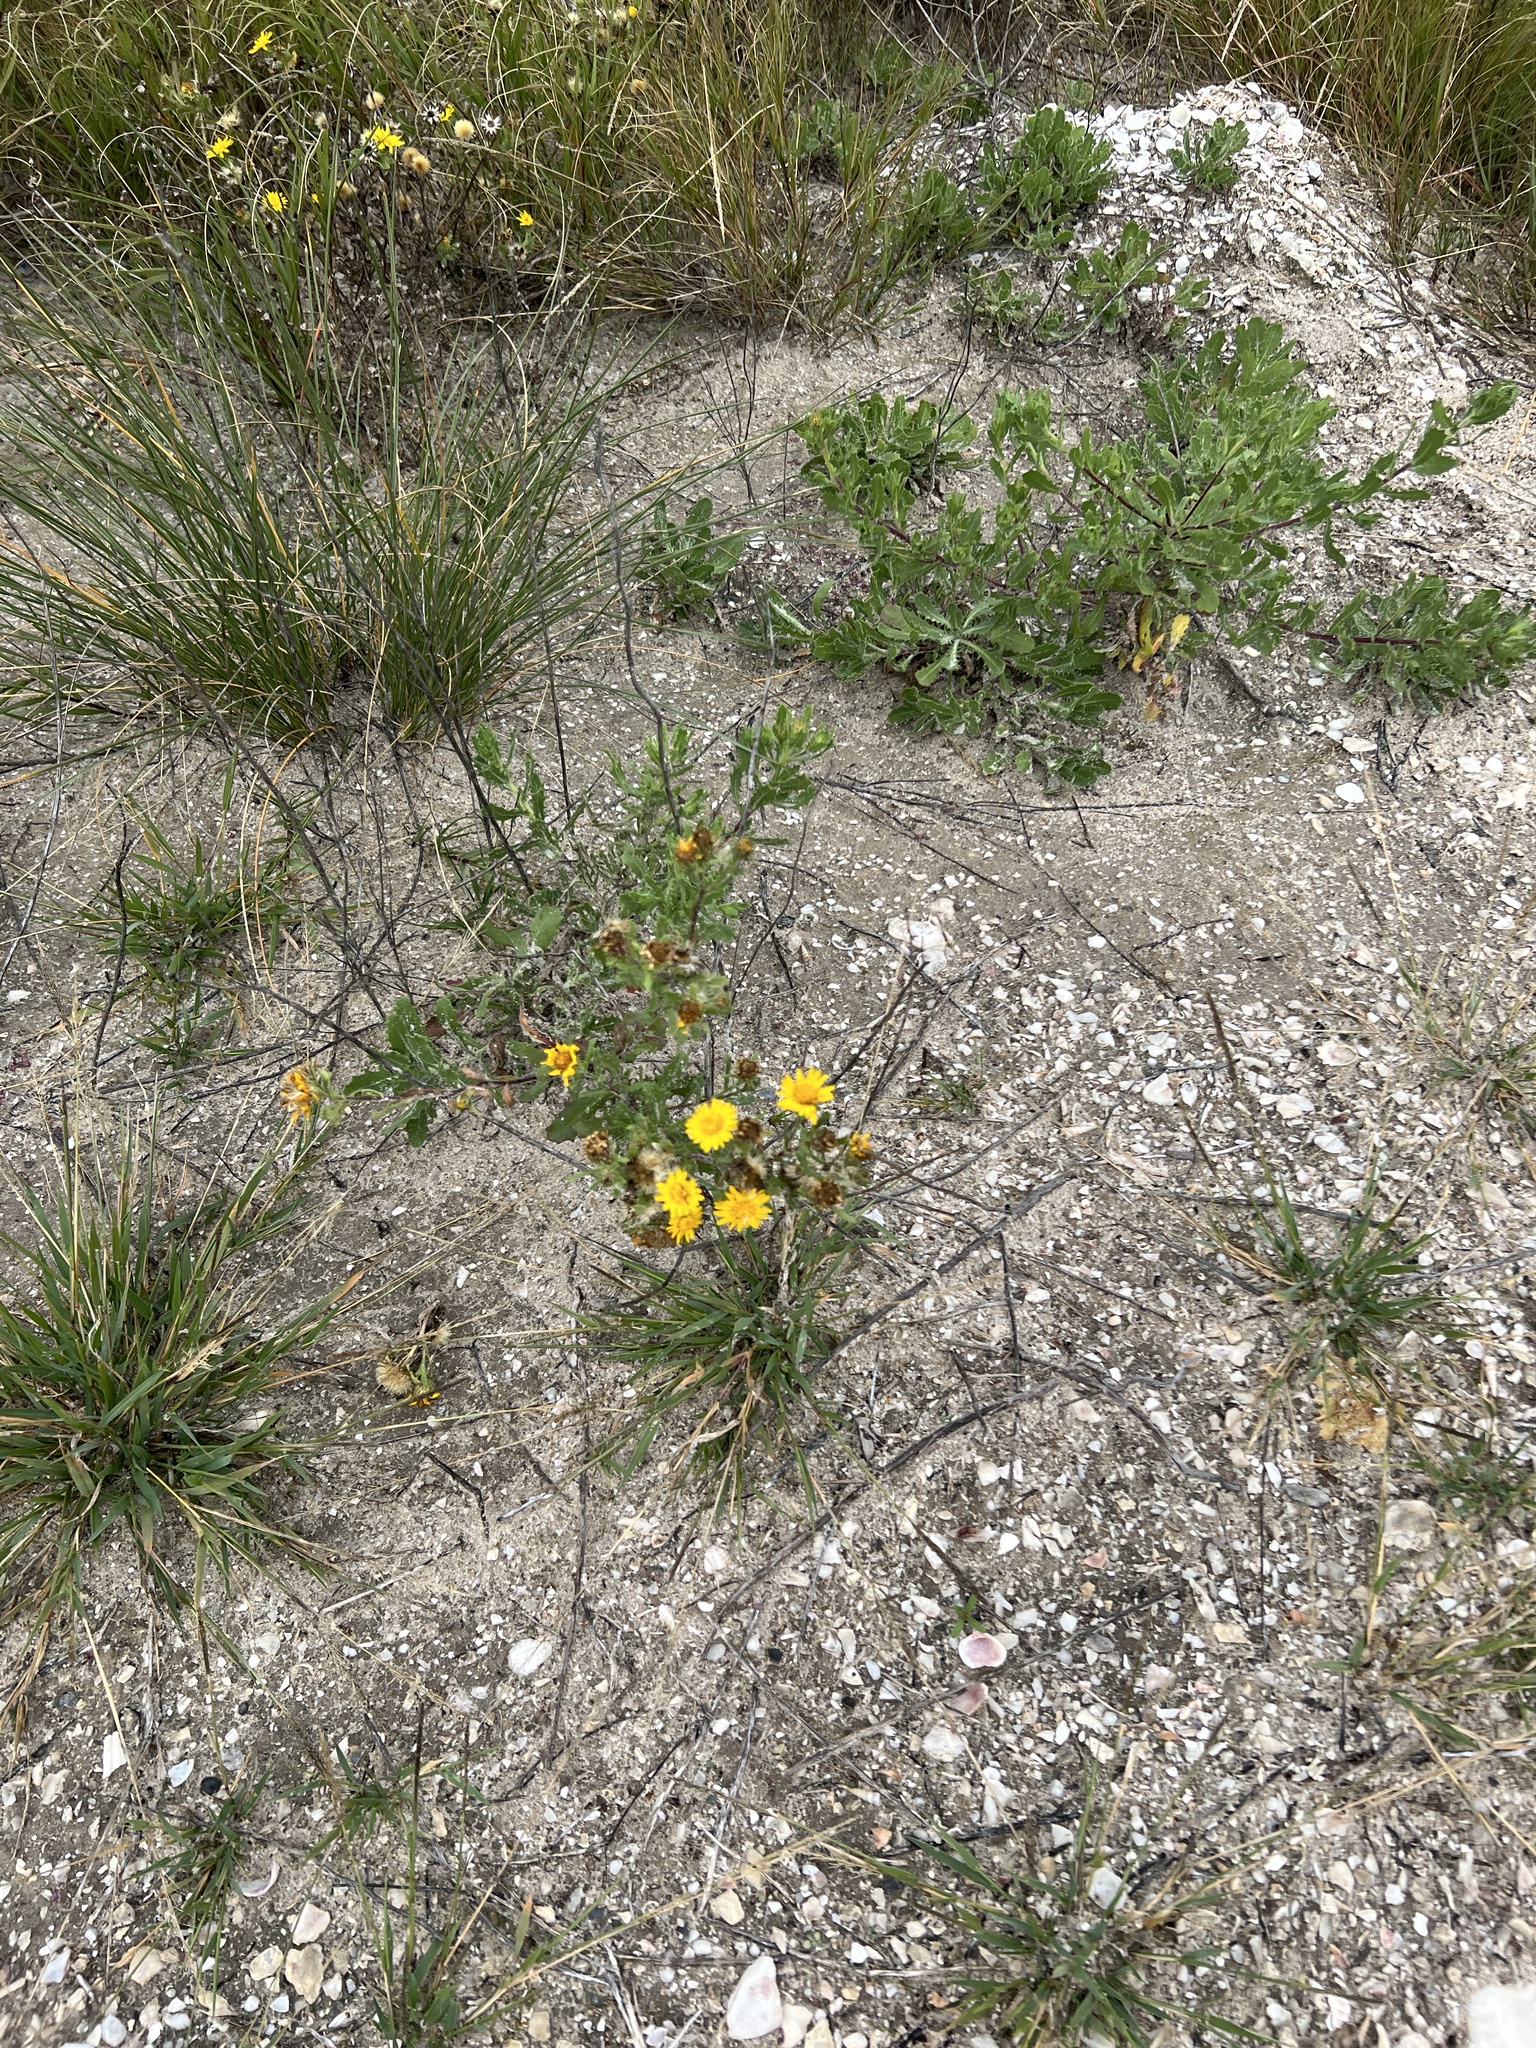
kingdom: Plantae
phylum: Tracheophyta
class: Magnoliopsida
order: Asterales
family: Asteraceae
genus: Rayjacksonia
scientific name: Rayjacksonia phyllocephala
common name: Gulf coast camphor daisy
